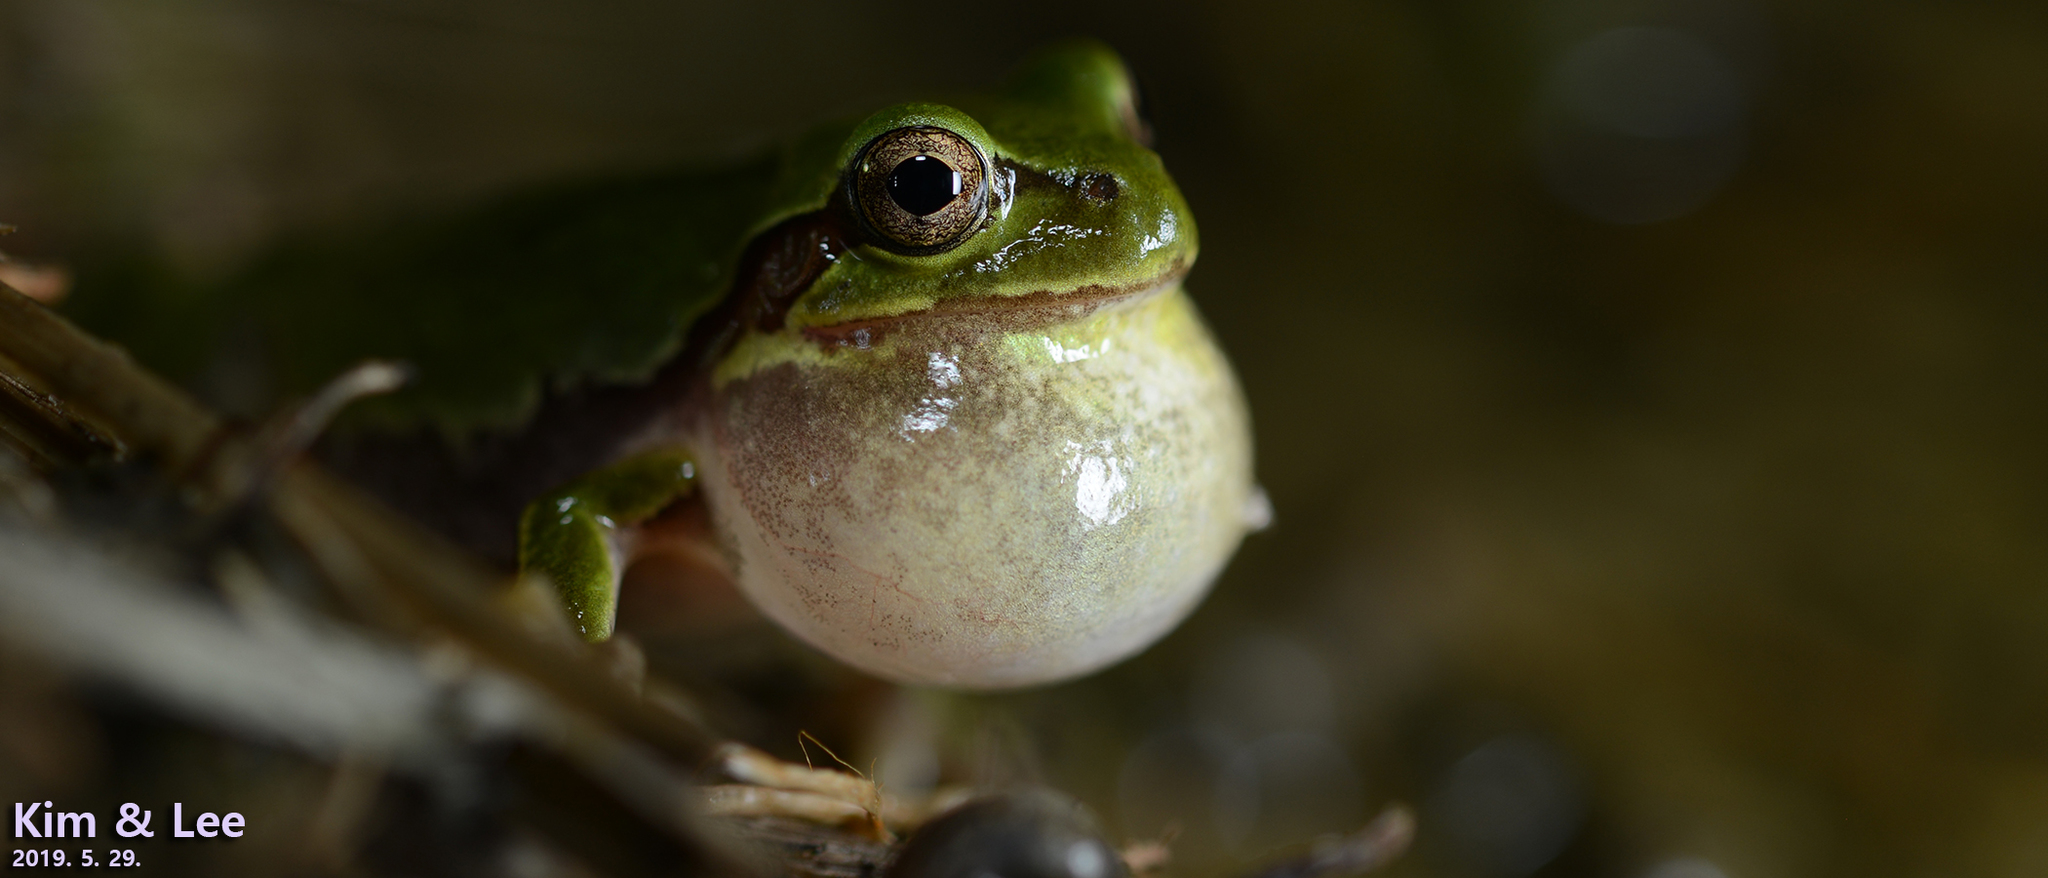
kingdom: Animalia
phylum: Chordata
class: Amphibia
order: Anura
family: Hylidae
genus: Dryophytes
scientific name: Dryophytes japonicus
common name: Japanese treefrog
